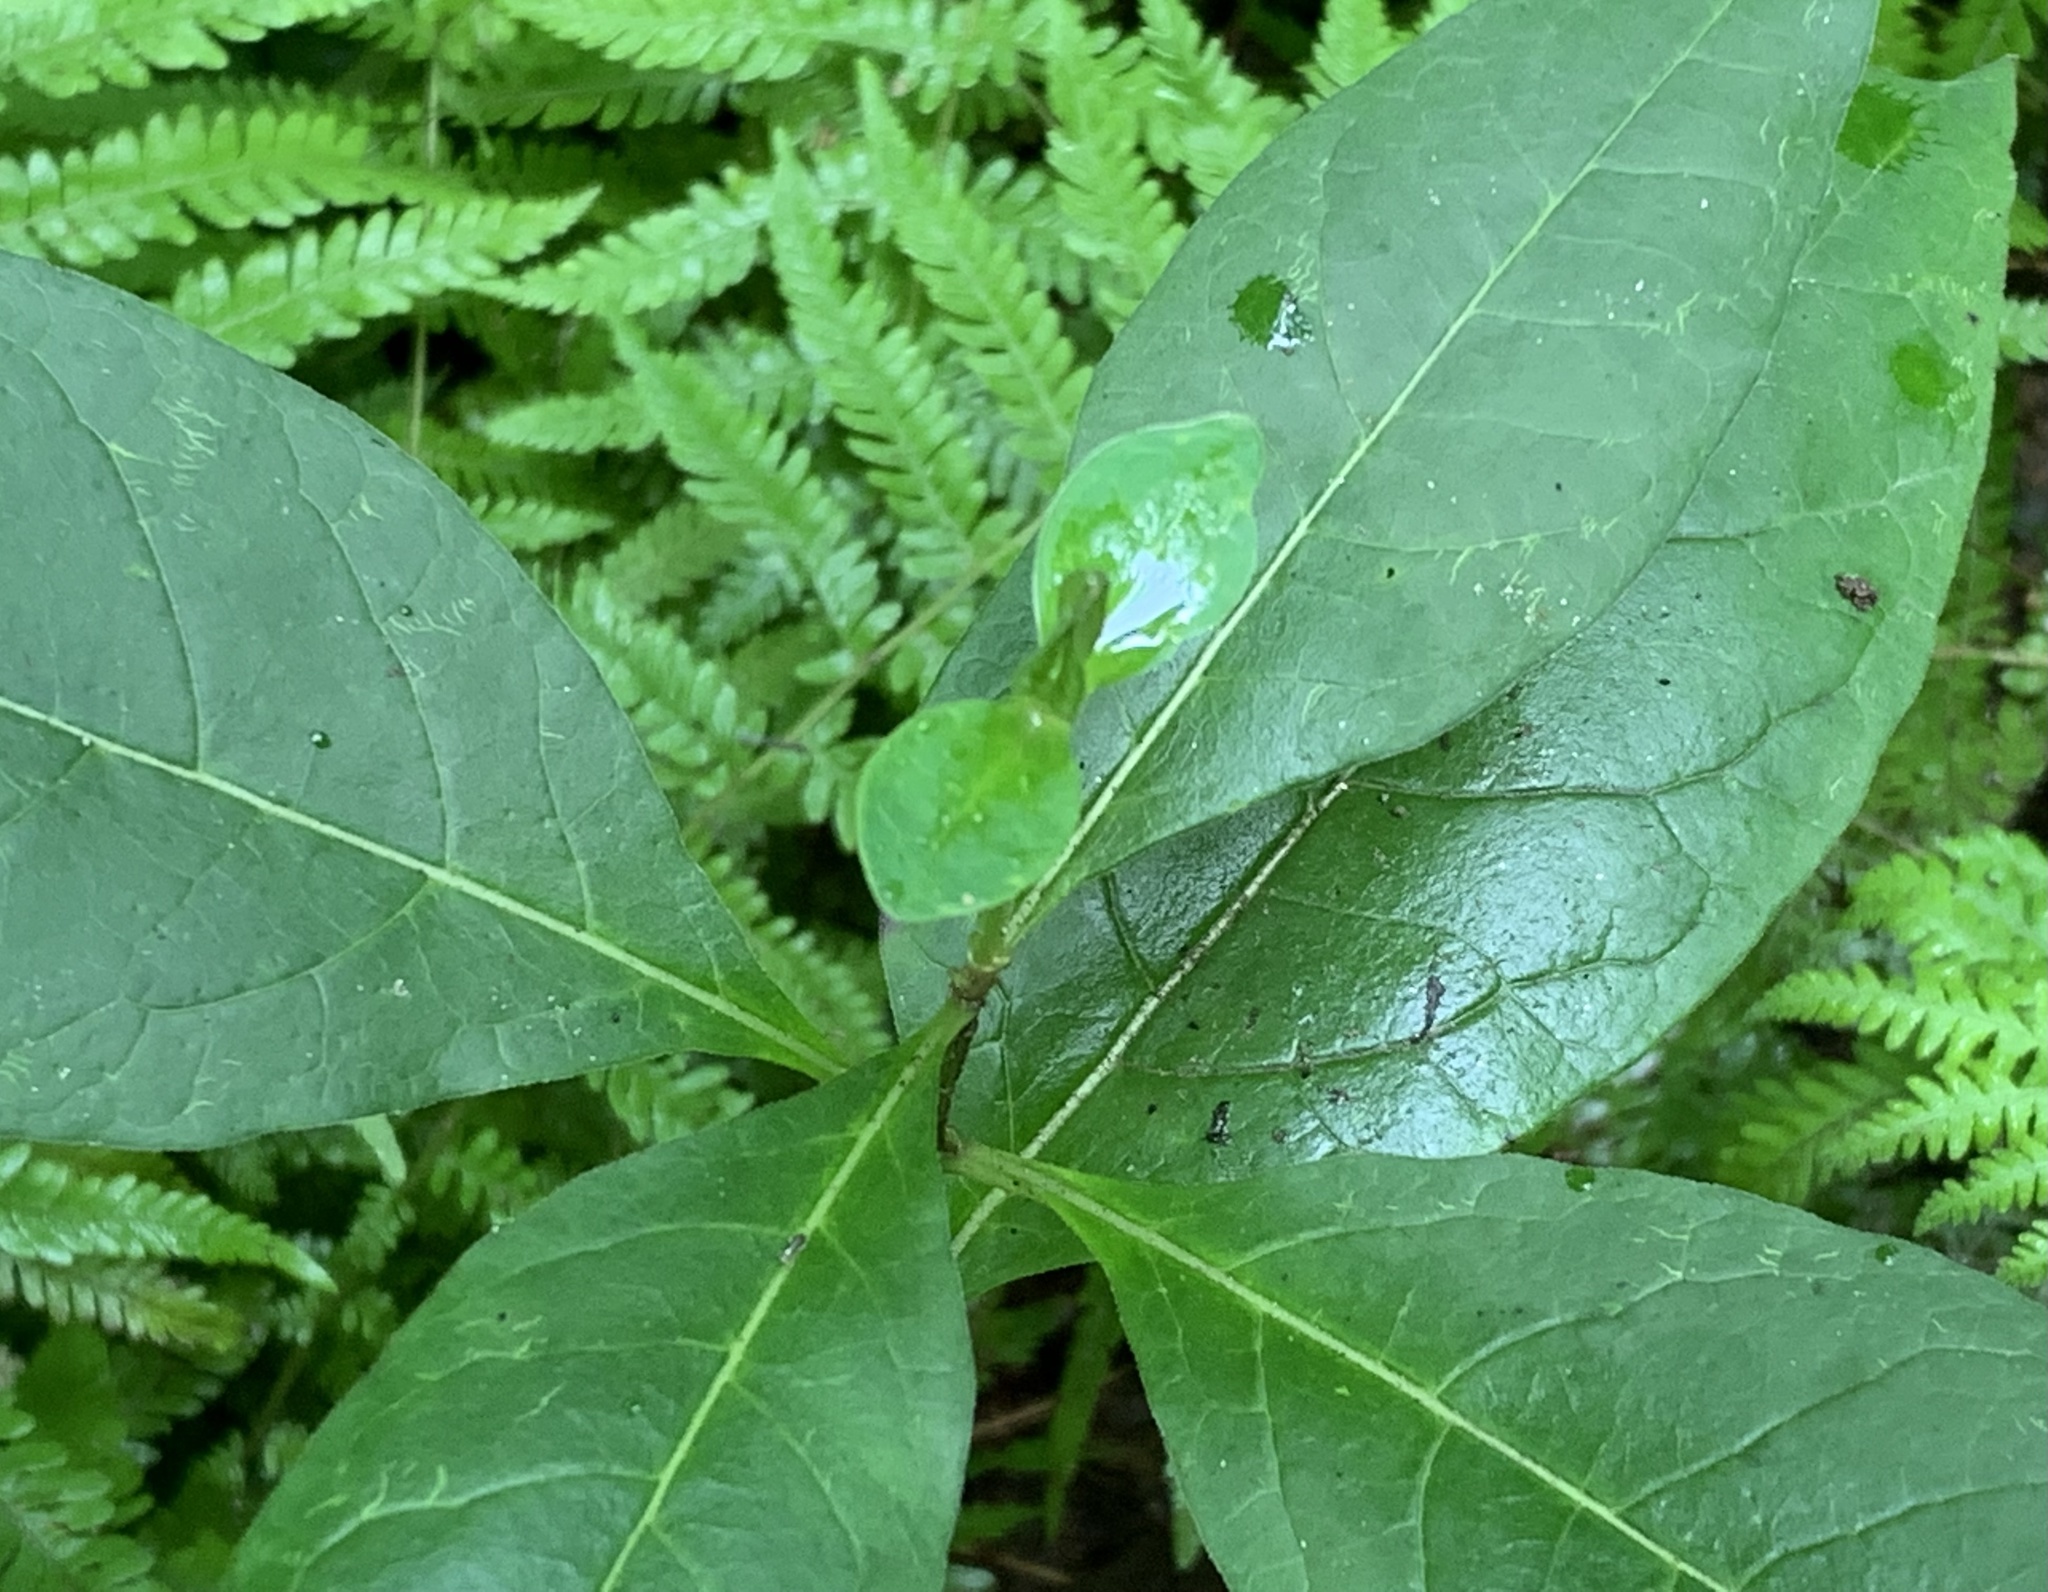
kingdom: Plantae
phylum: Tracheophyta
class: Magnoliopsida
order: Gentianales
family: Apocynaceae
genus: Asclepias
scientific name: Asclepias exaltata
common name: Poke milkweed
